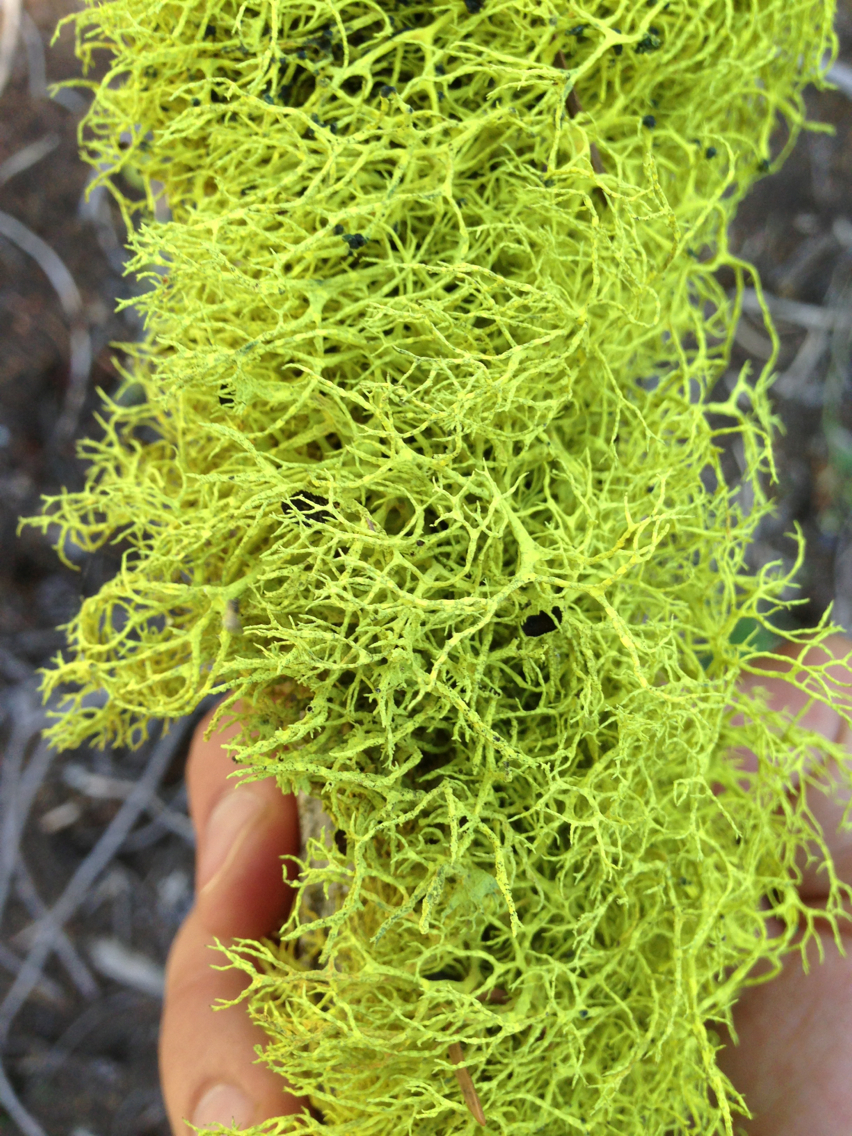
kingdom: Fungi
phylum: Ascomycota
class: Lecanoromycetes
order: Lecanorales
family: Parmeliaceae
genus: Letharia
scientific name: Letharia columbiana
